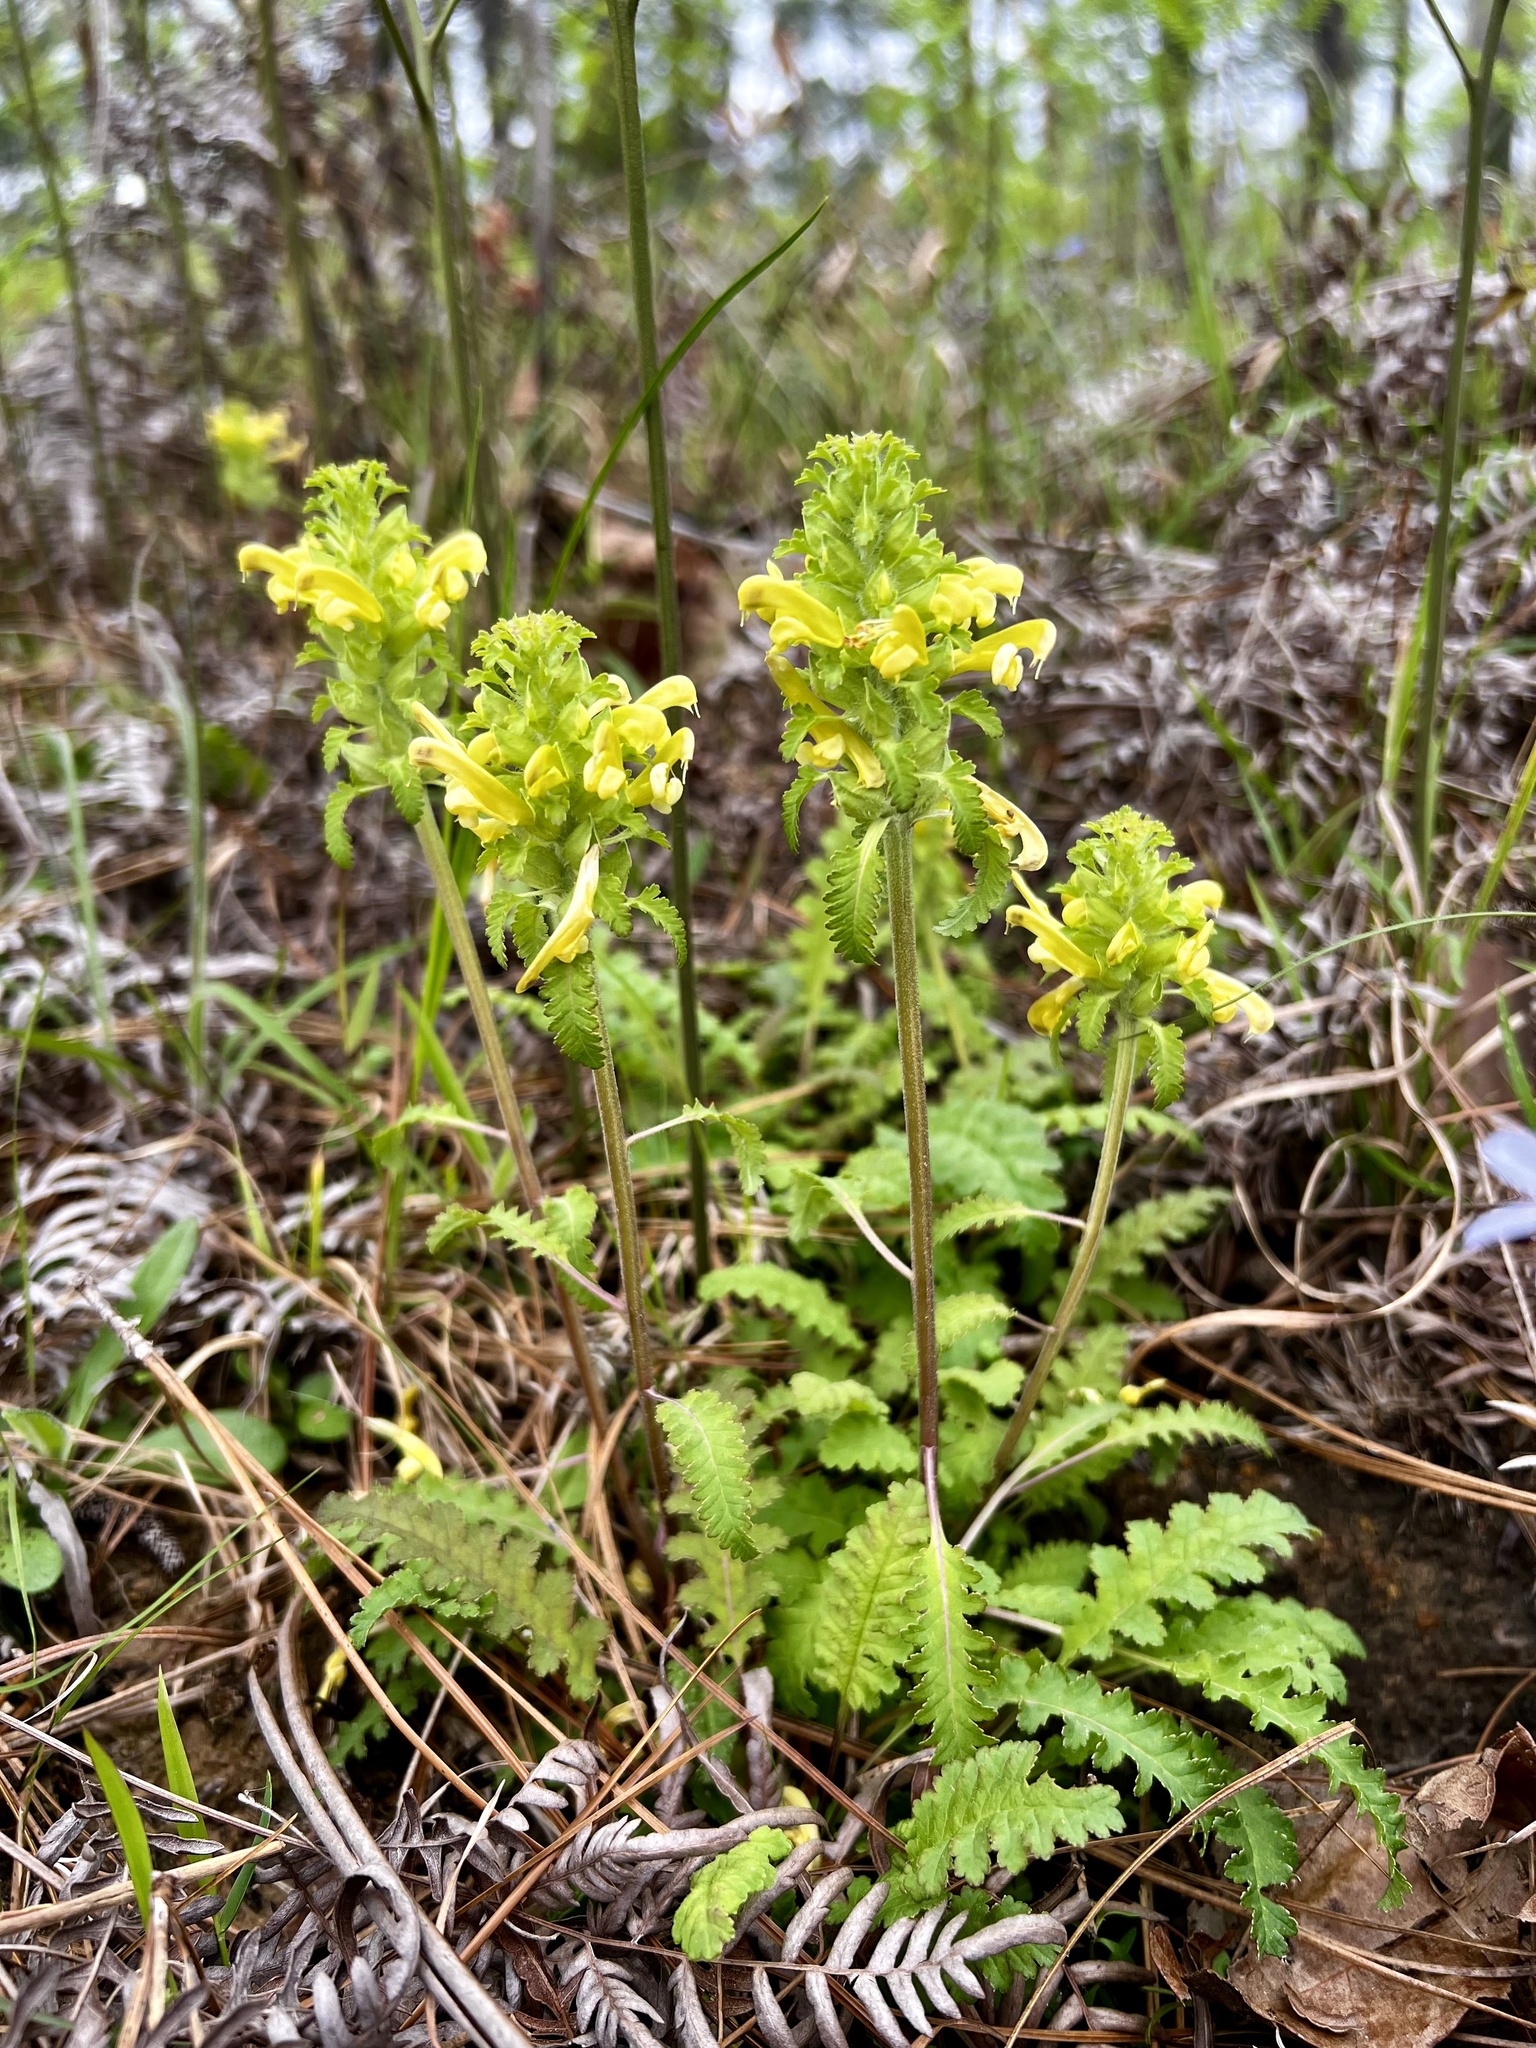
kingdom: Plantae
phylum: Tracheophyta
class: Magnoliopsida
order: Lamiales
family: Orobanchaceae
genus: Pedicularis
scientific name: Pedicularis canadensis
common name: Early lousewort
